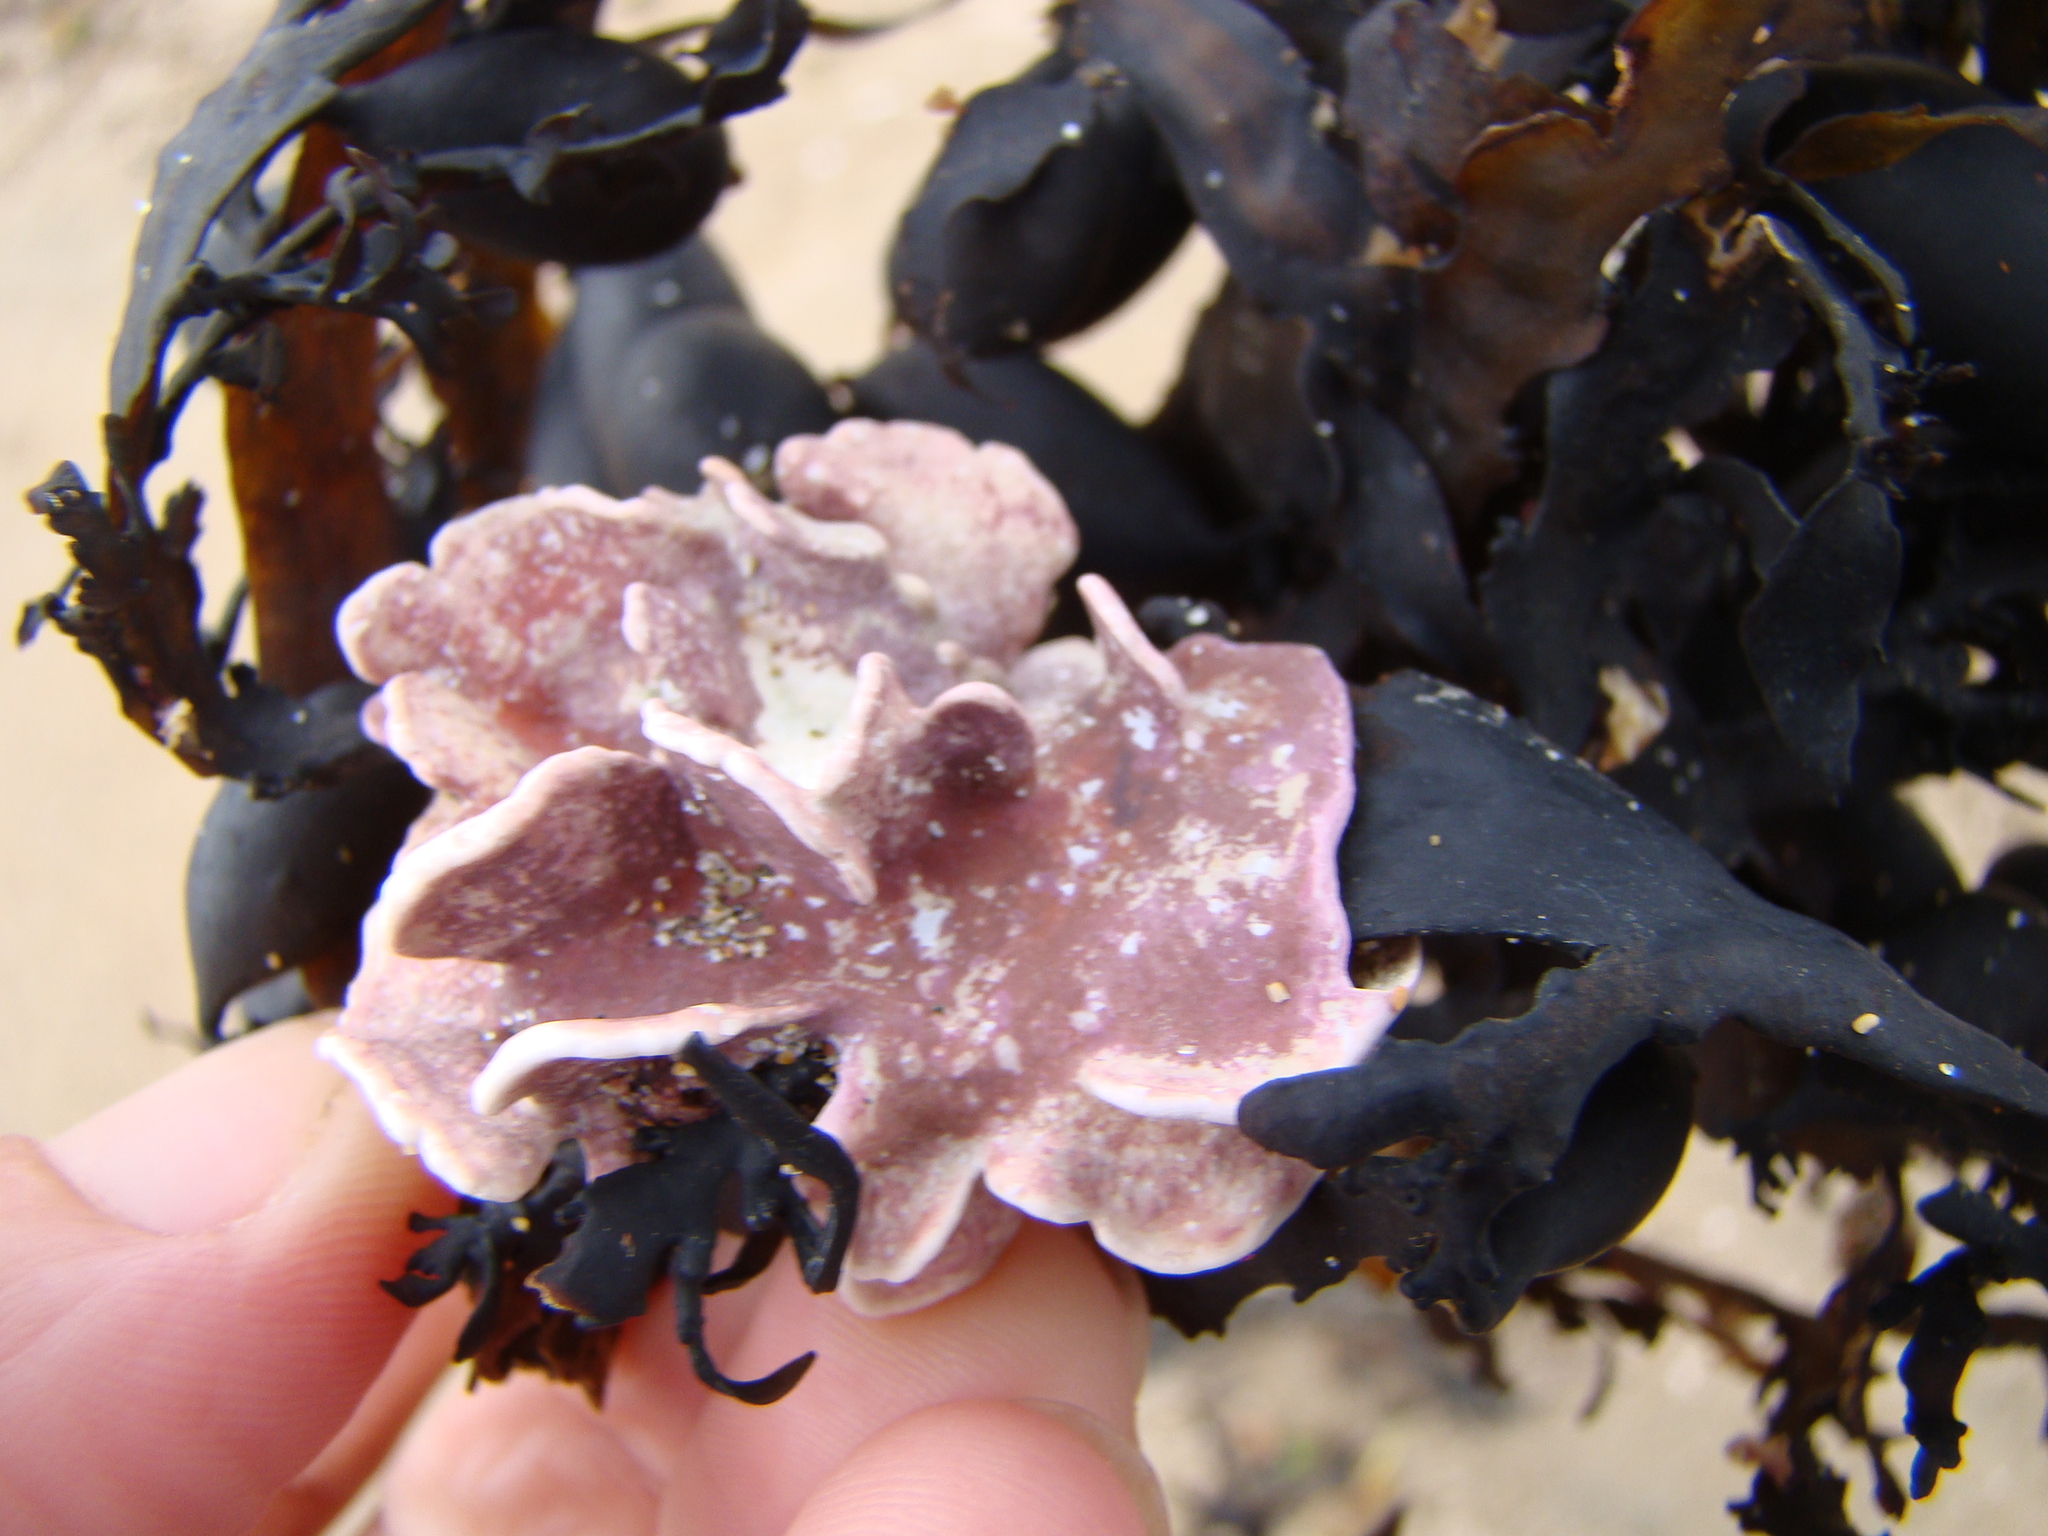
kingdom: Plantae
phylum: Rhodophyta
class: Florideophyceae
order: Corallinales
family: Lithophyllaceae
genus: Lithophyllum
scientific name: Lithophyllum carpophylli
